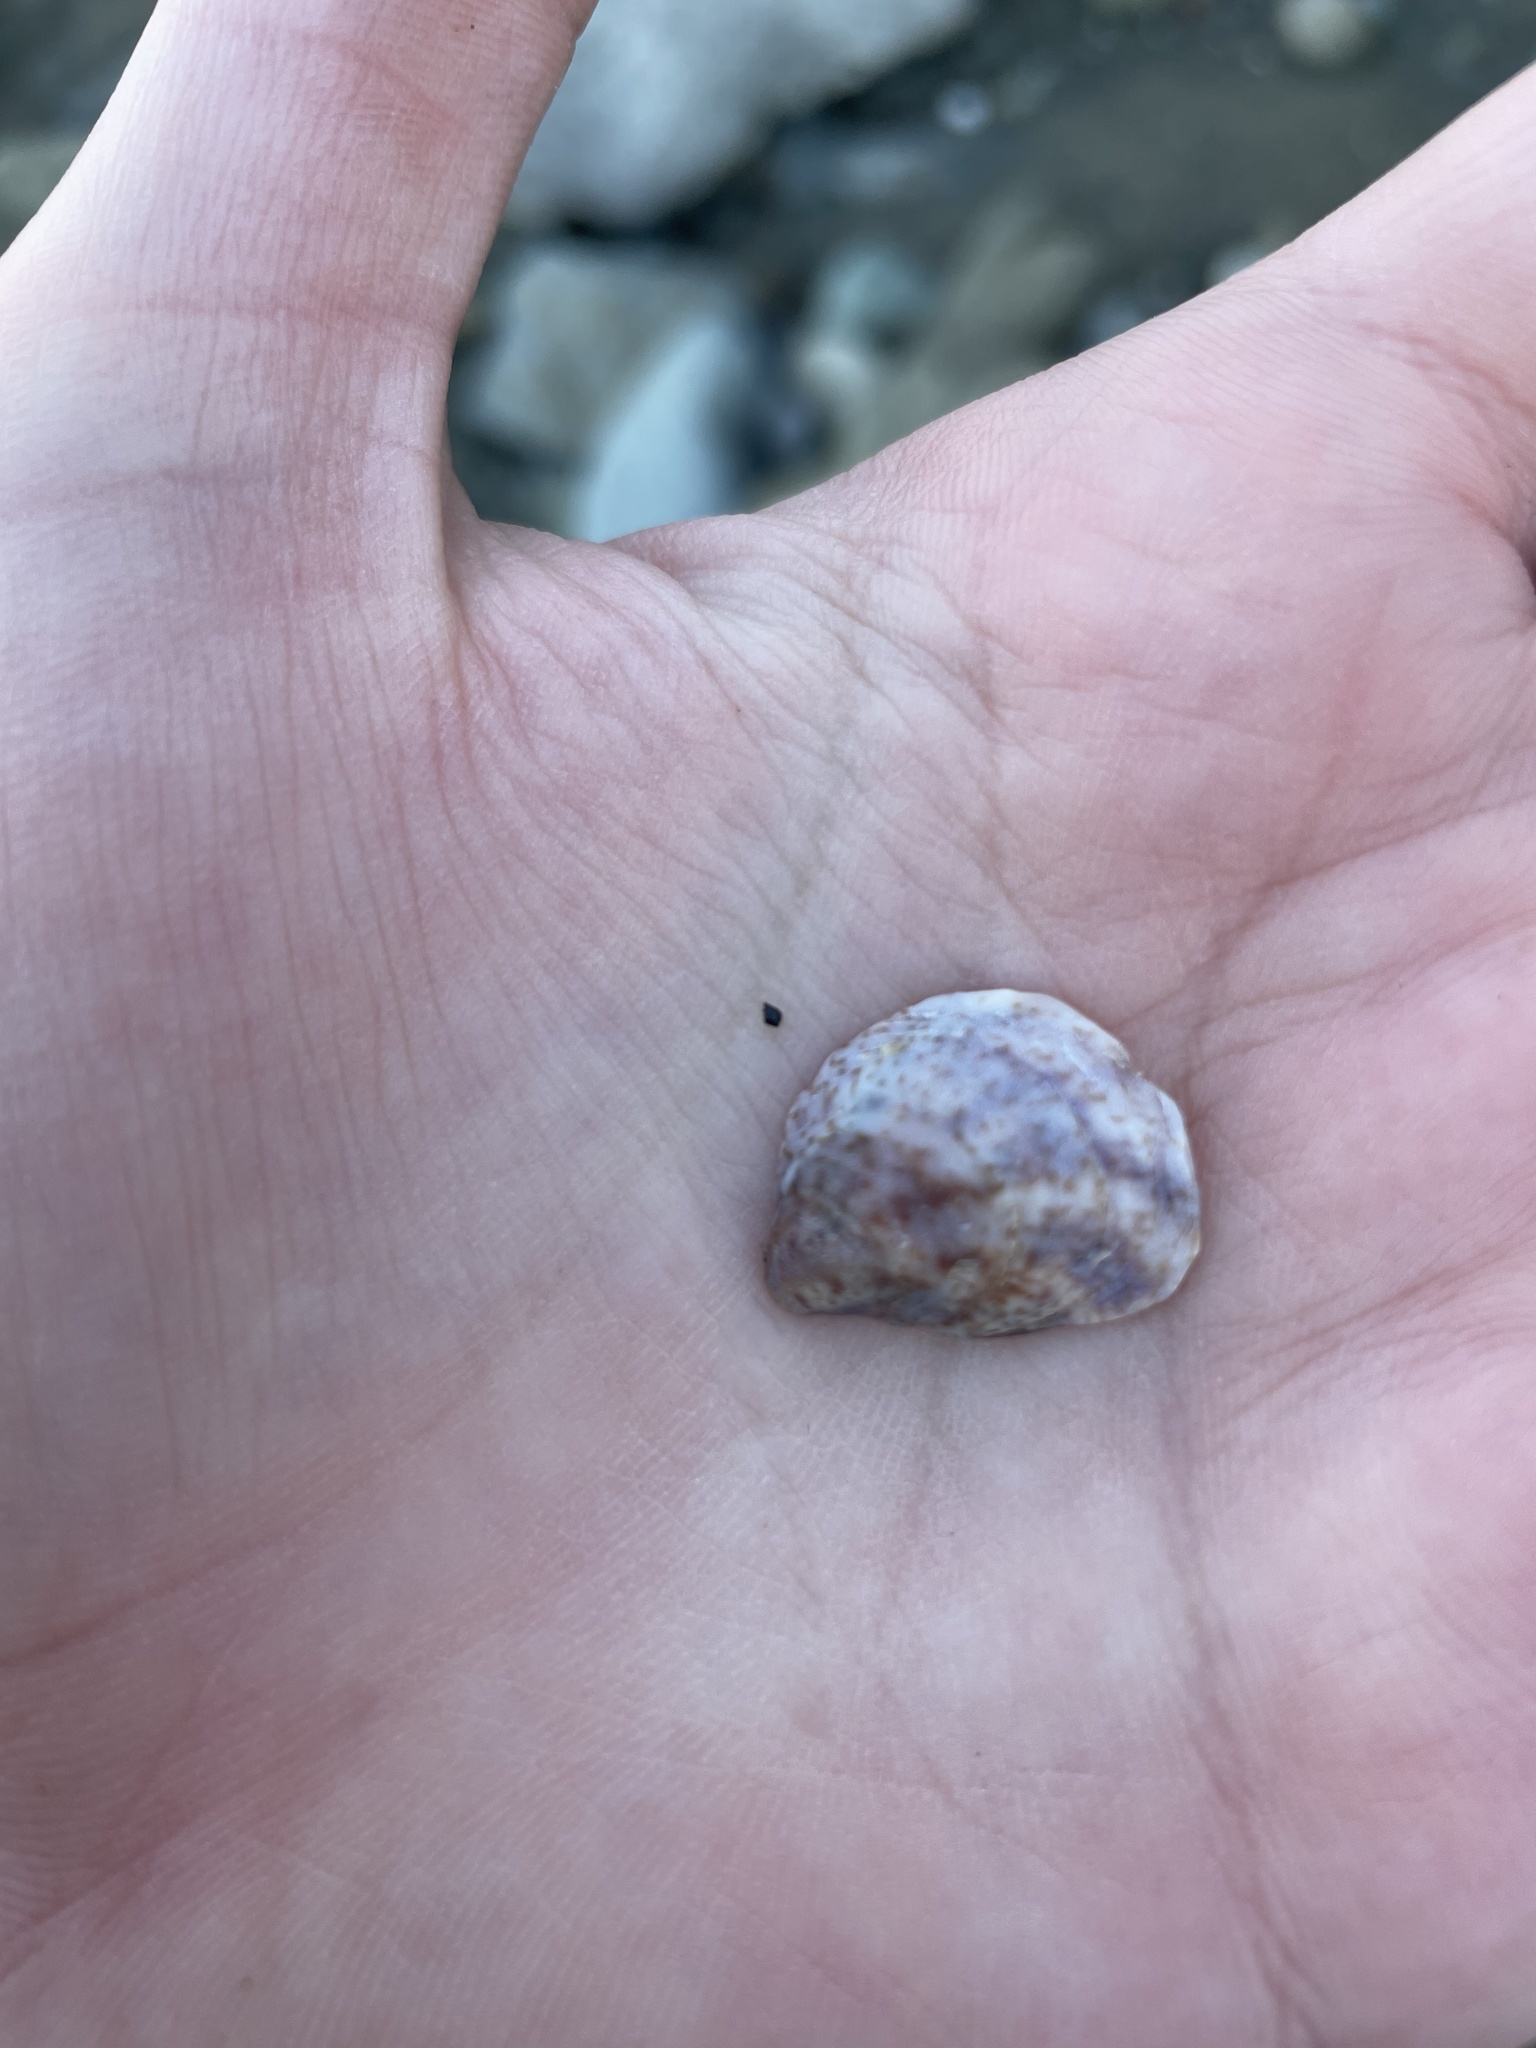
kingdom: Animalia
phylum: Mollusca
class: Gastropoda
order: Littorinimorpha
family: Calyptraeidae
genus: Crepidula
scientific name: Crepidula fornicata
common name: Slipper limpet
